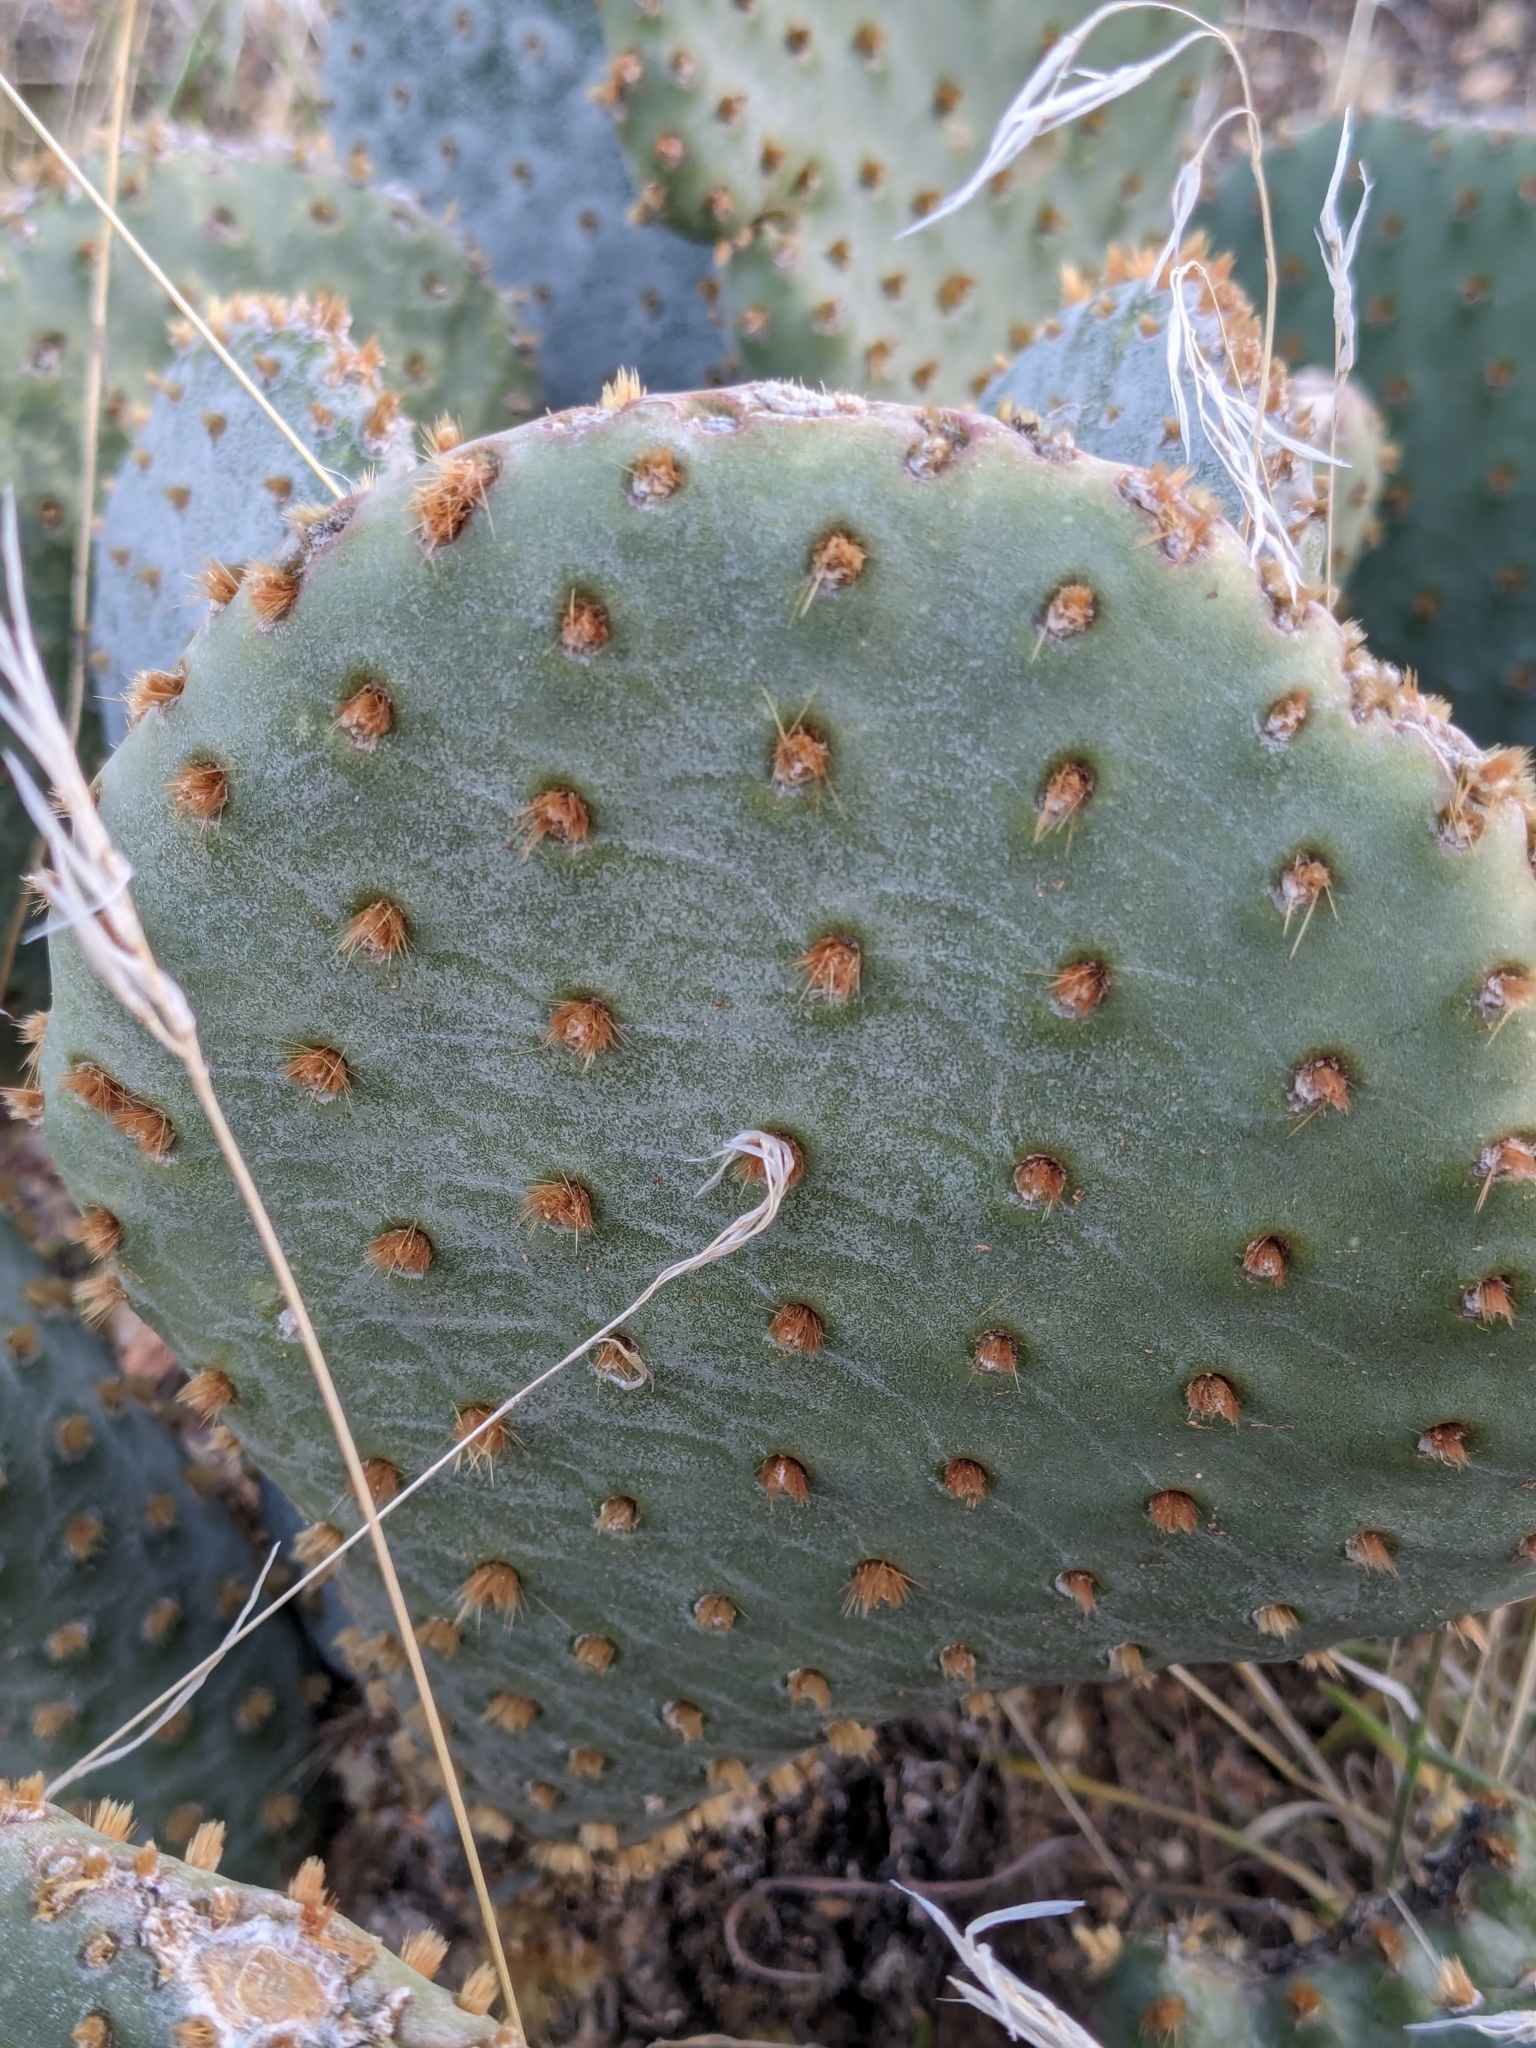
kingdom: Plantae
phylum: Tracheophyta
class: Magnoliopsida
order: Caryophyllales
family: Cactaceae
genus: Opuntia
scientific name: Opuntia basilaris
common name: Beavertail prickly-pear
